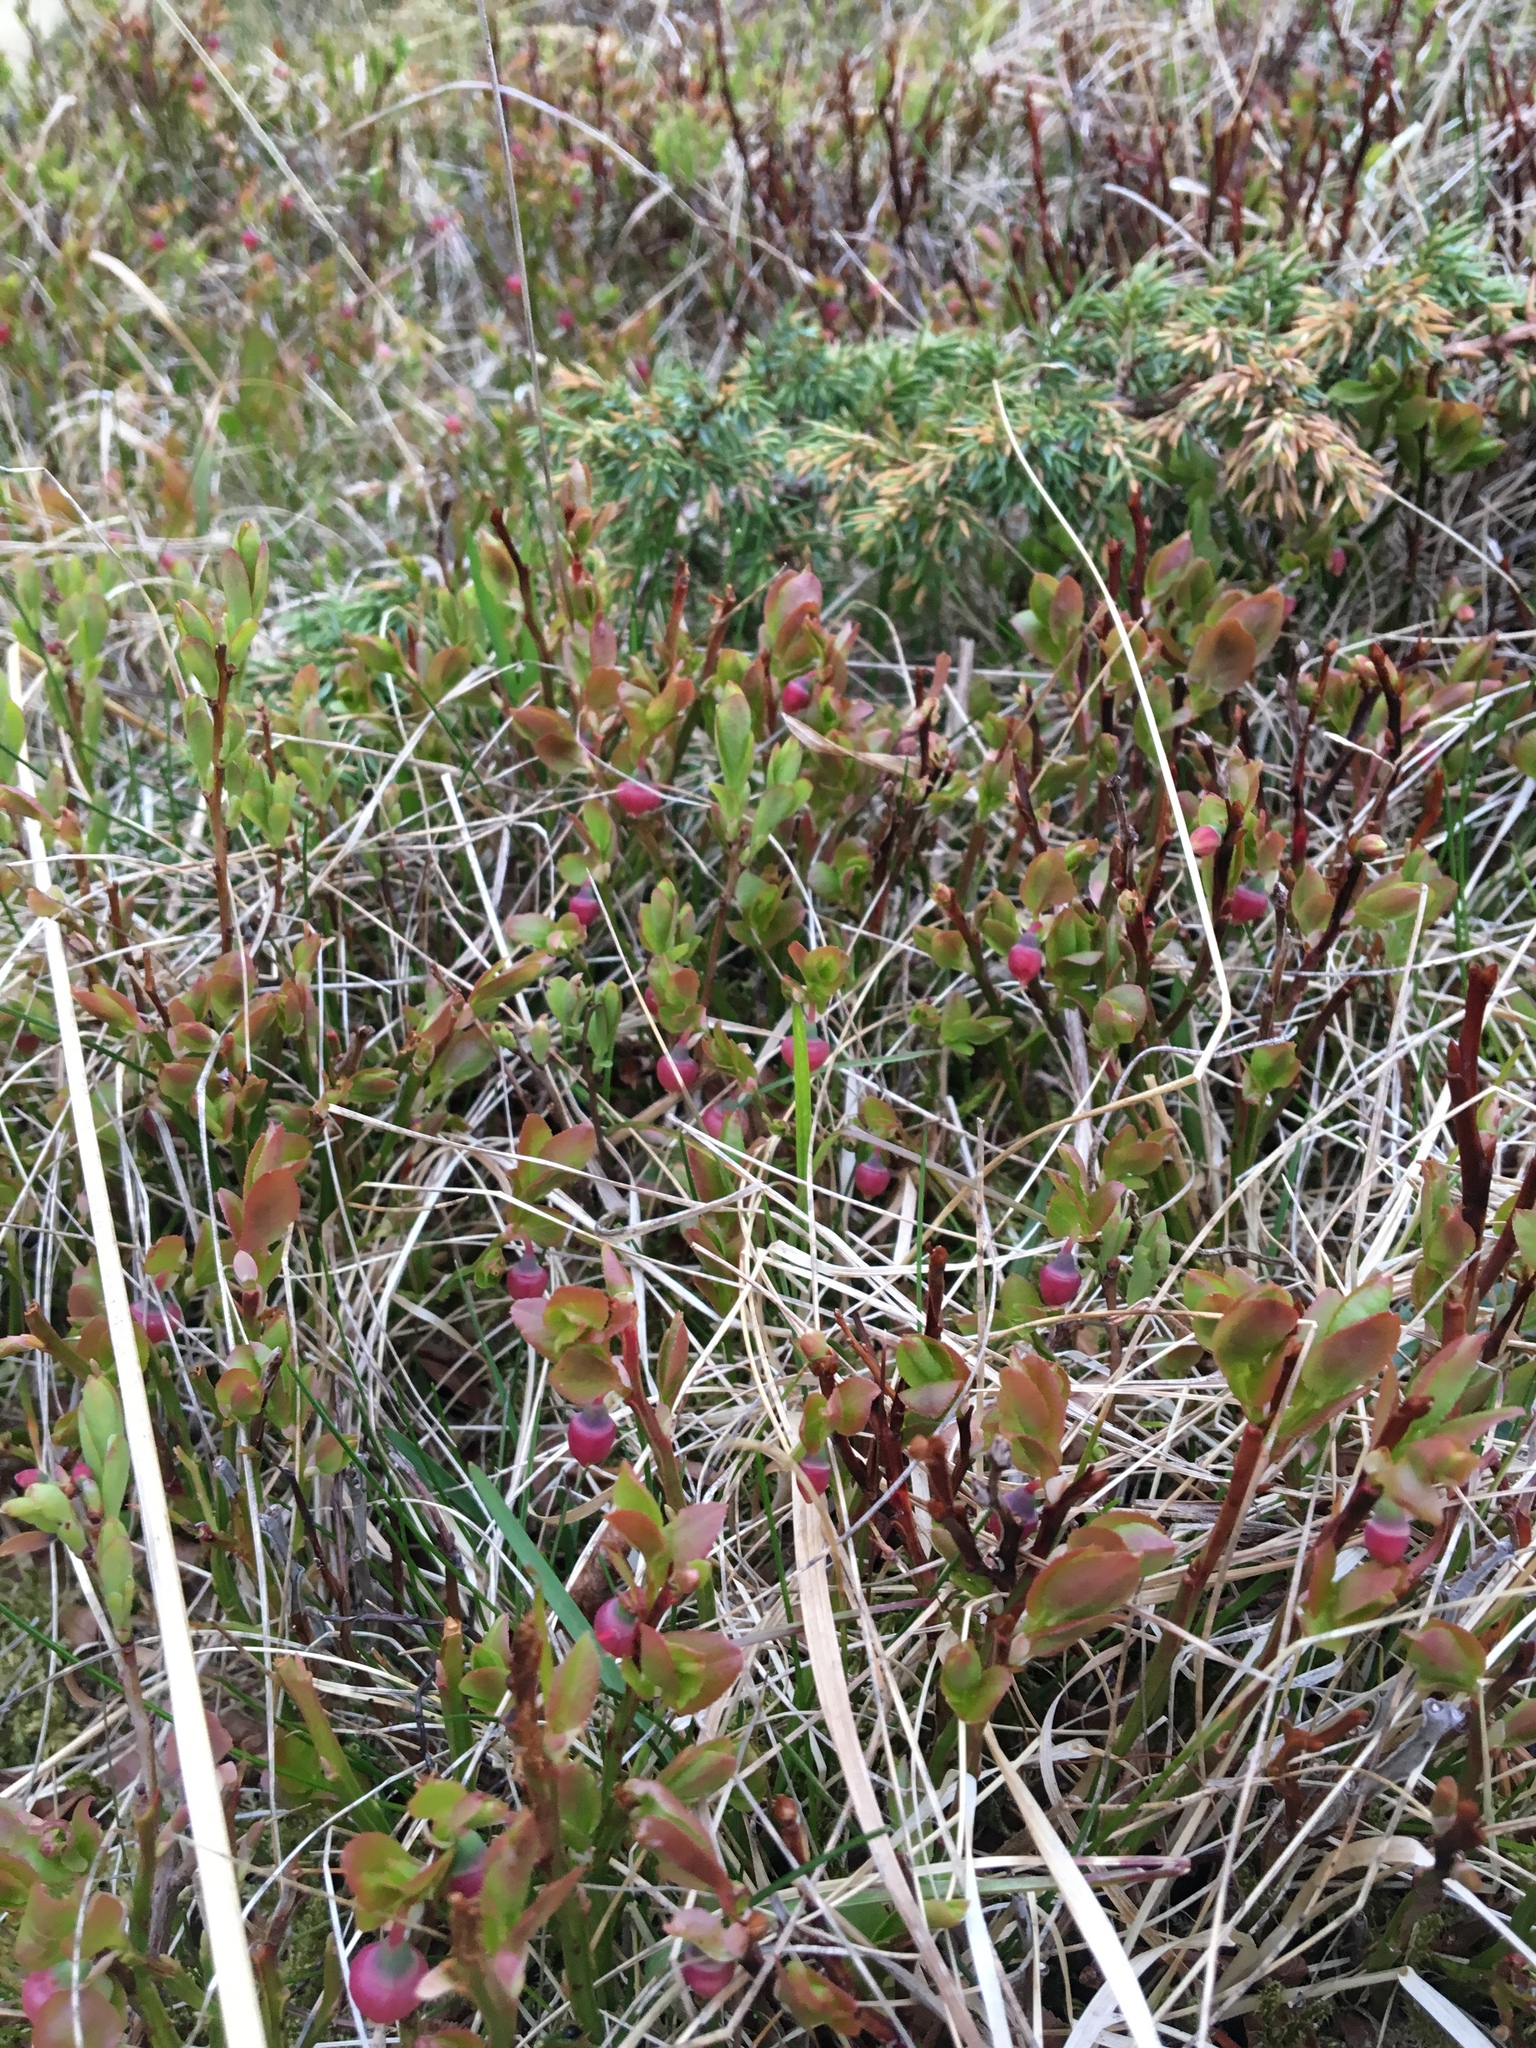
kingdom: Plantae
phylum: Tracheophyta
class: Magnoliopsida
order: Ericales
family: Ericaceae
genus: Vaccinium
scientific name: Vaccinium myrtillus
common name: Bilberry
